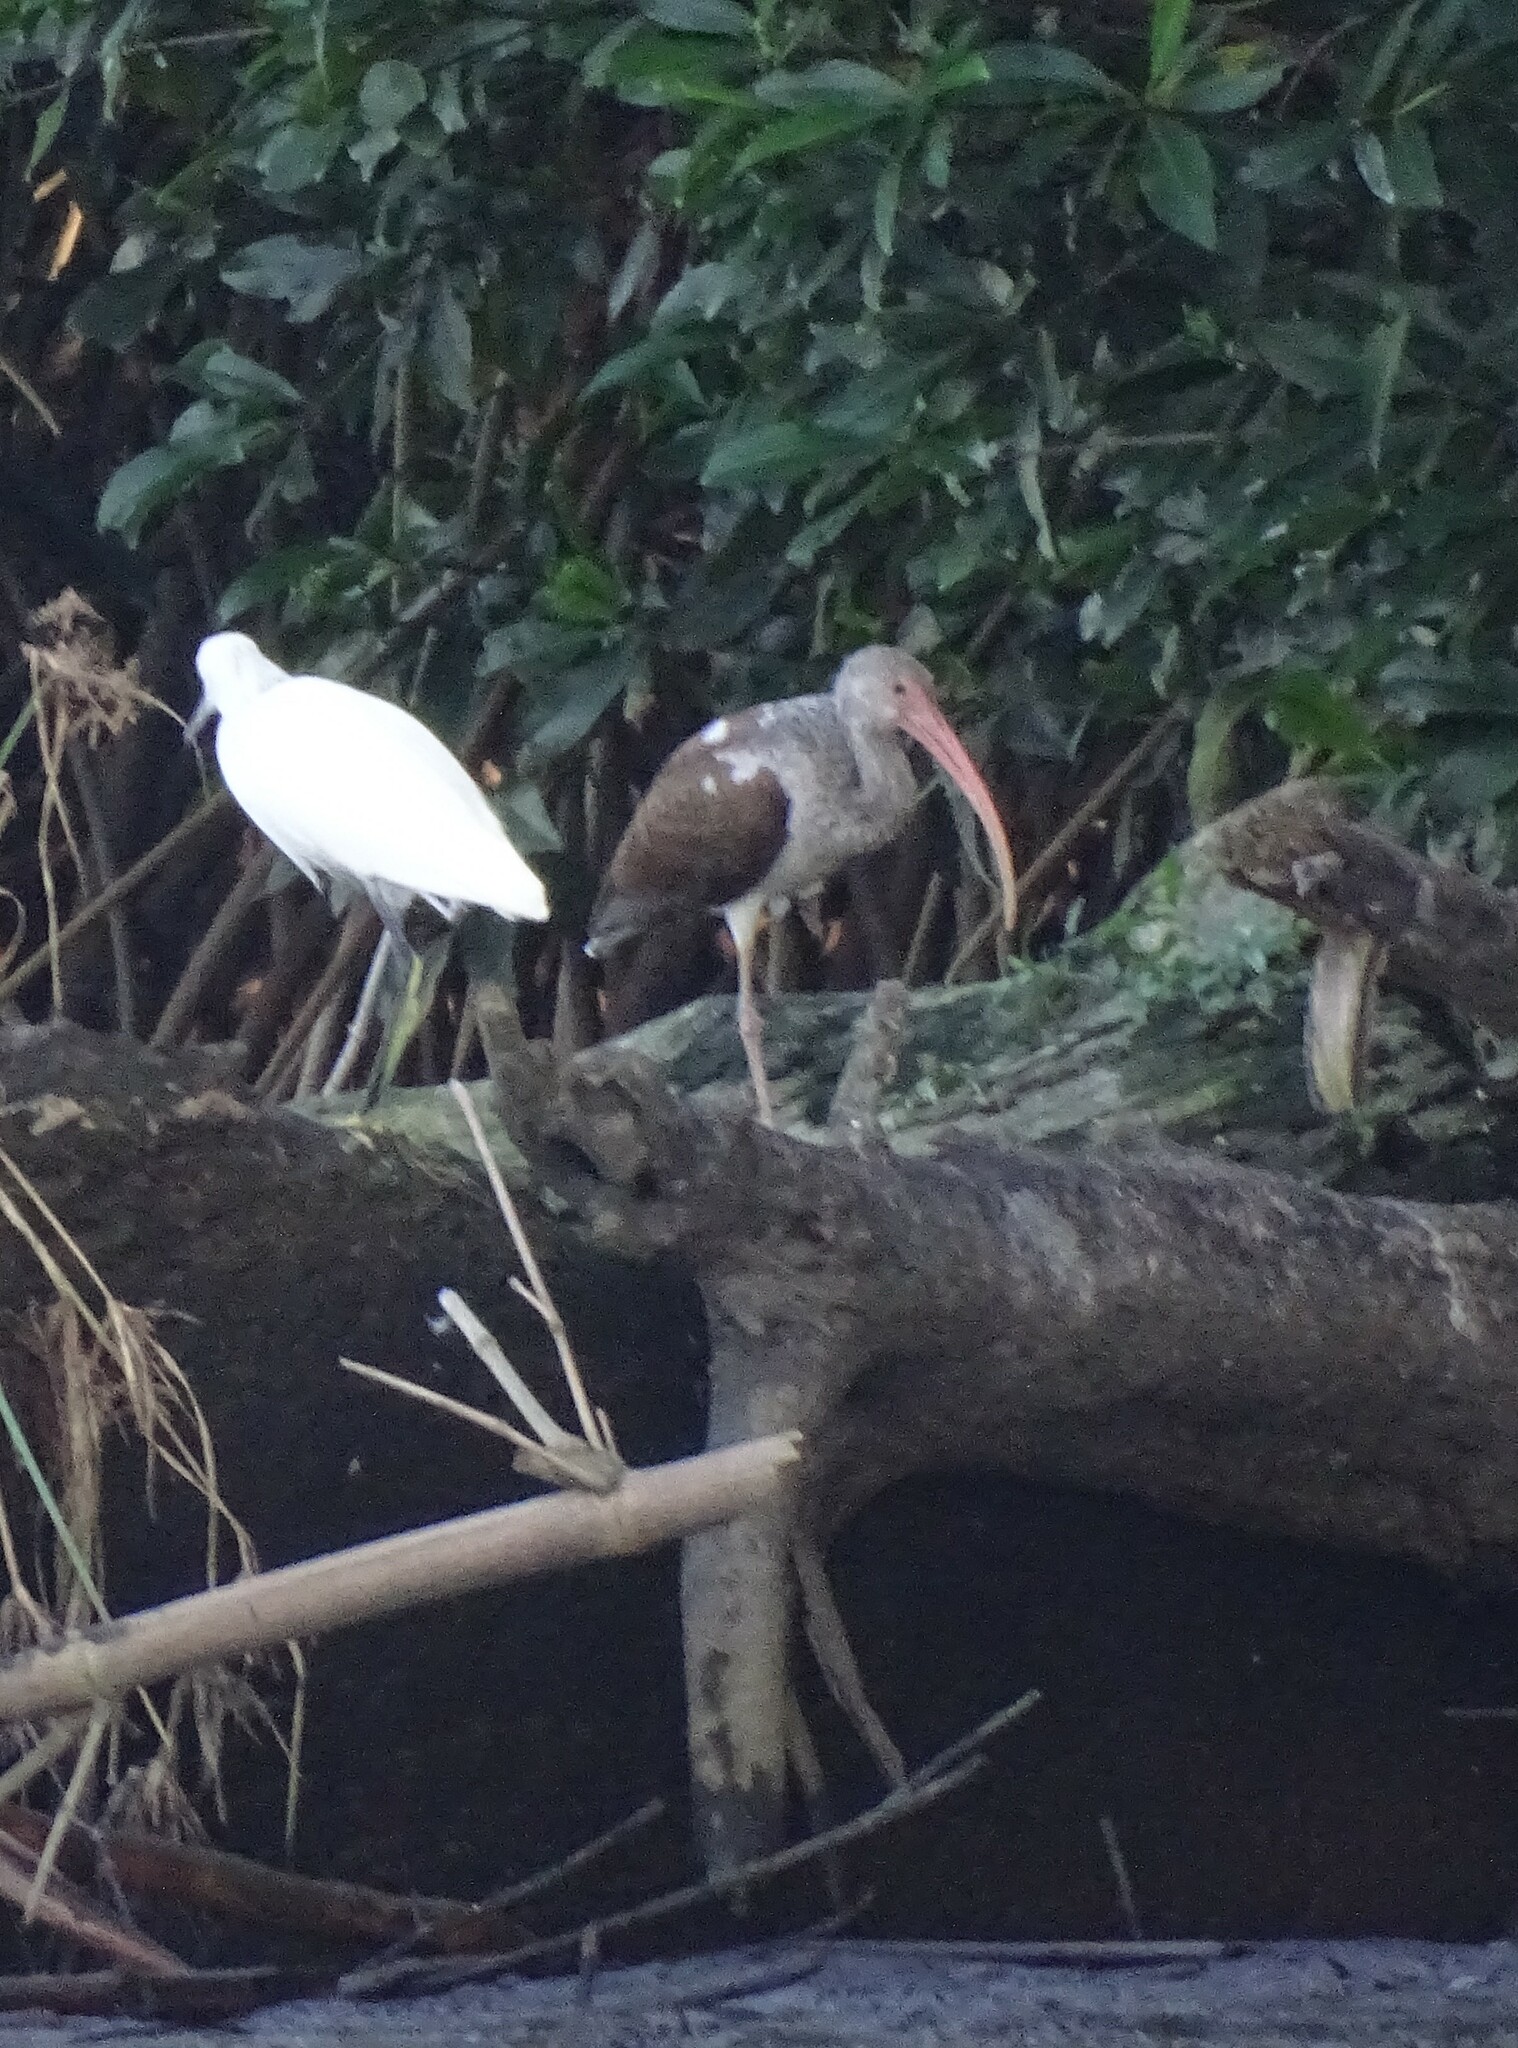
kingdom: Animalia
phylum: Chordata
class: Aves
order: Pelecaniformes
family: Threskiornithidae
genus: Eudocimus
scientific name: Eudocimus albus
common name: White ibis
